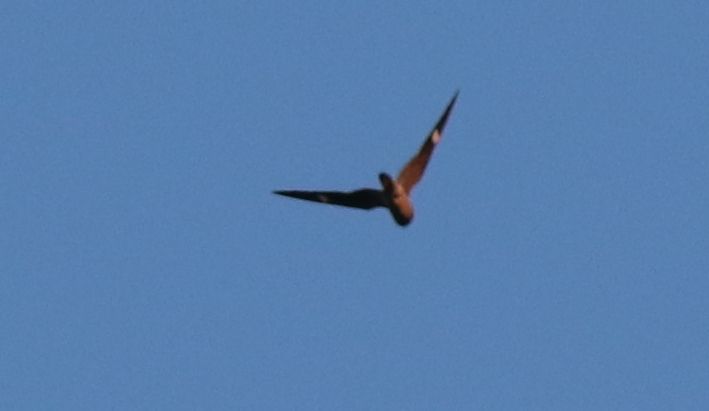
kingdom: Animalia
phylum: Chordata
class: Aves
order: Caprimulgiformes
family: Caprimulgidae
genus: Chordeiles
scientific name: Chordeiles minor
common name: Common nighthawk
